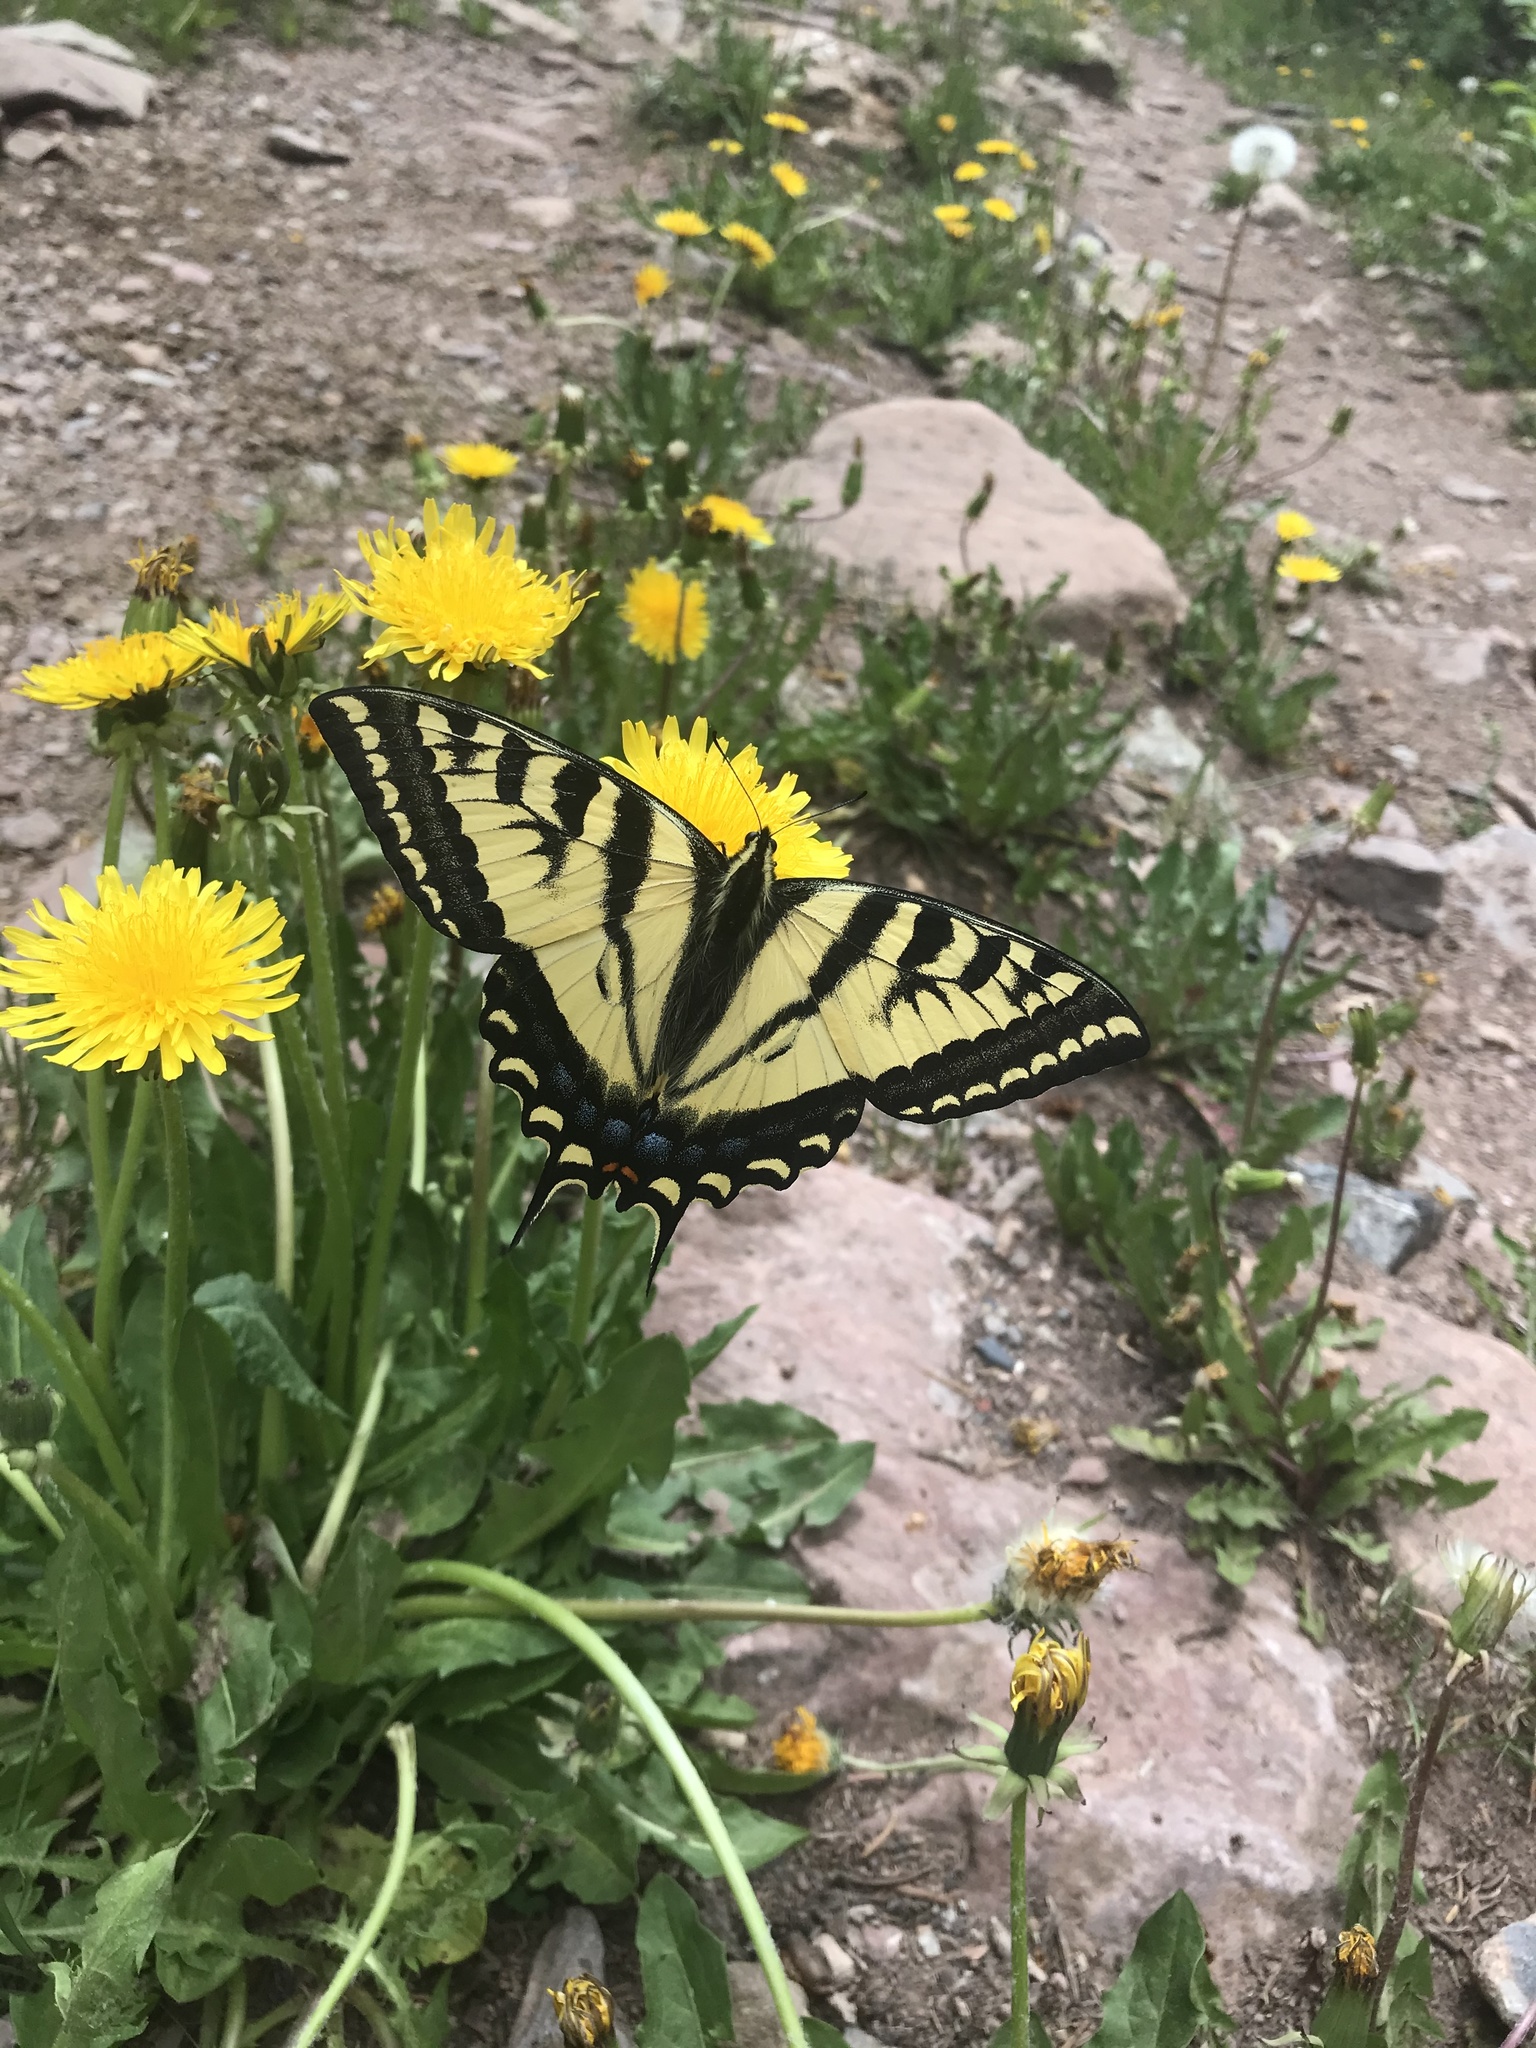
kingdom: Animalia
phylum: Arthropoda
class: Insecta
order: Lepidoptera
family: Papilionidae
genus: Papilio
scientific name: Papilio rutulus
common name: Western tiger swallowtail
